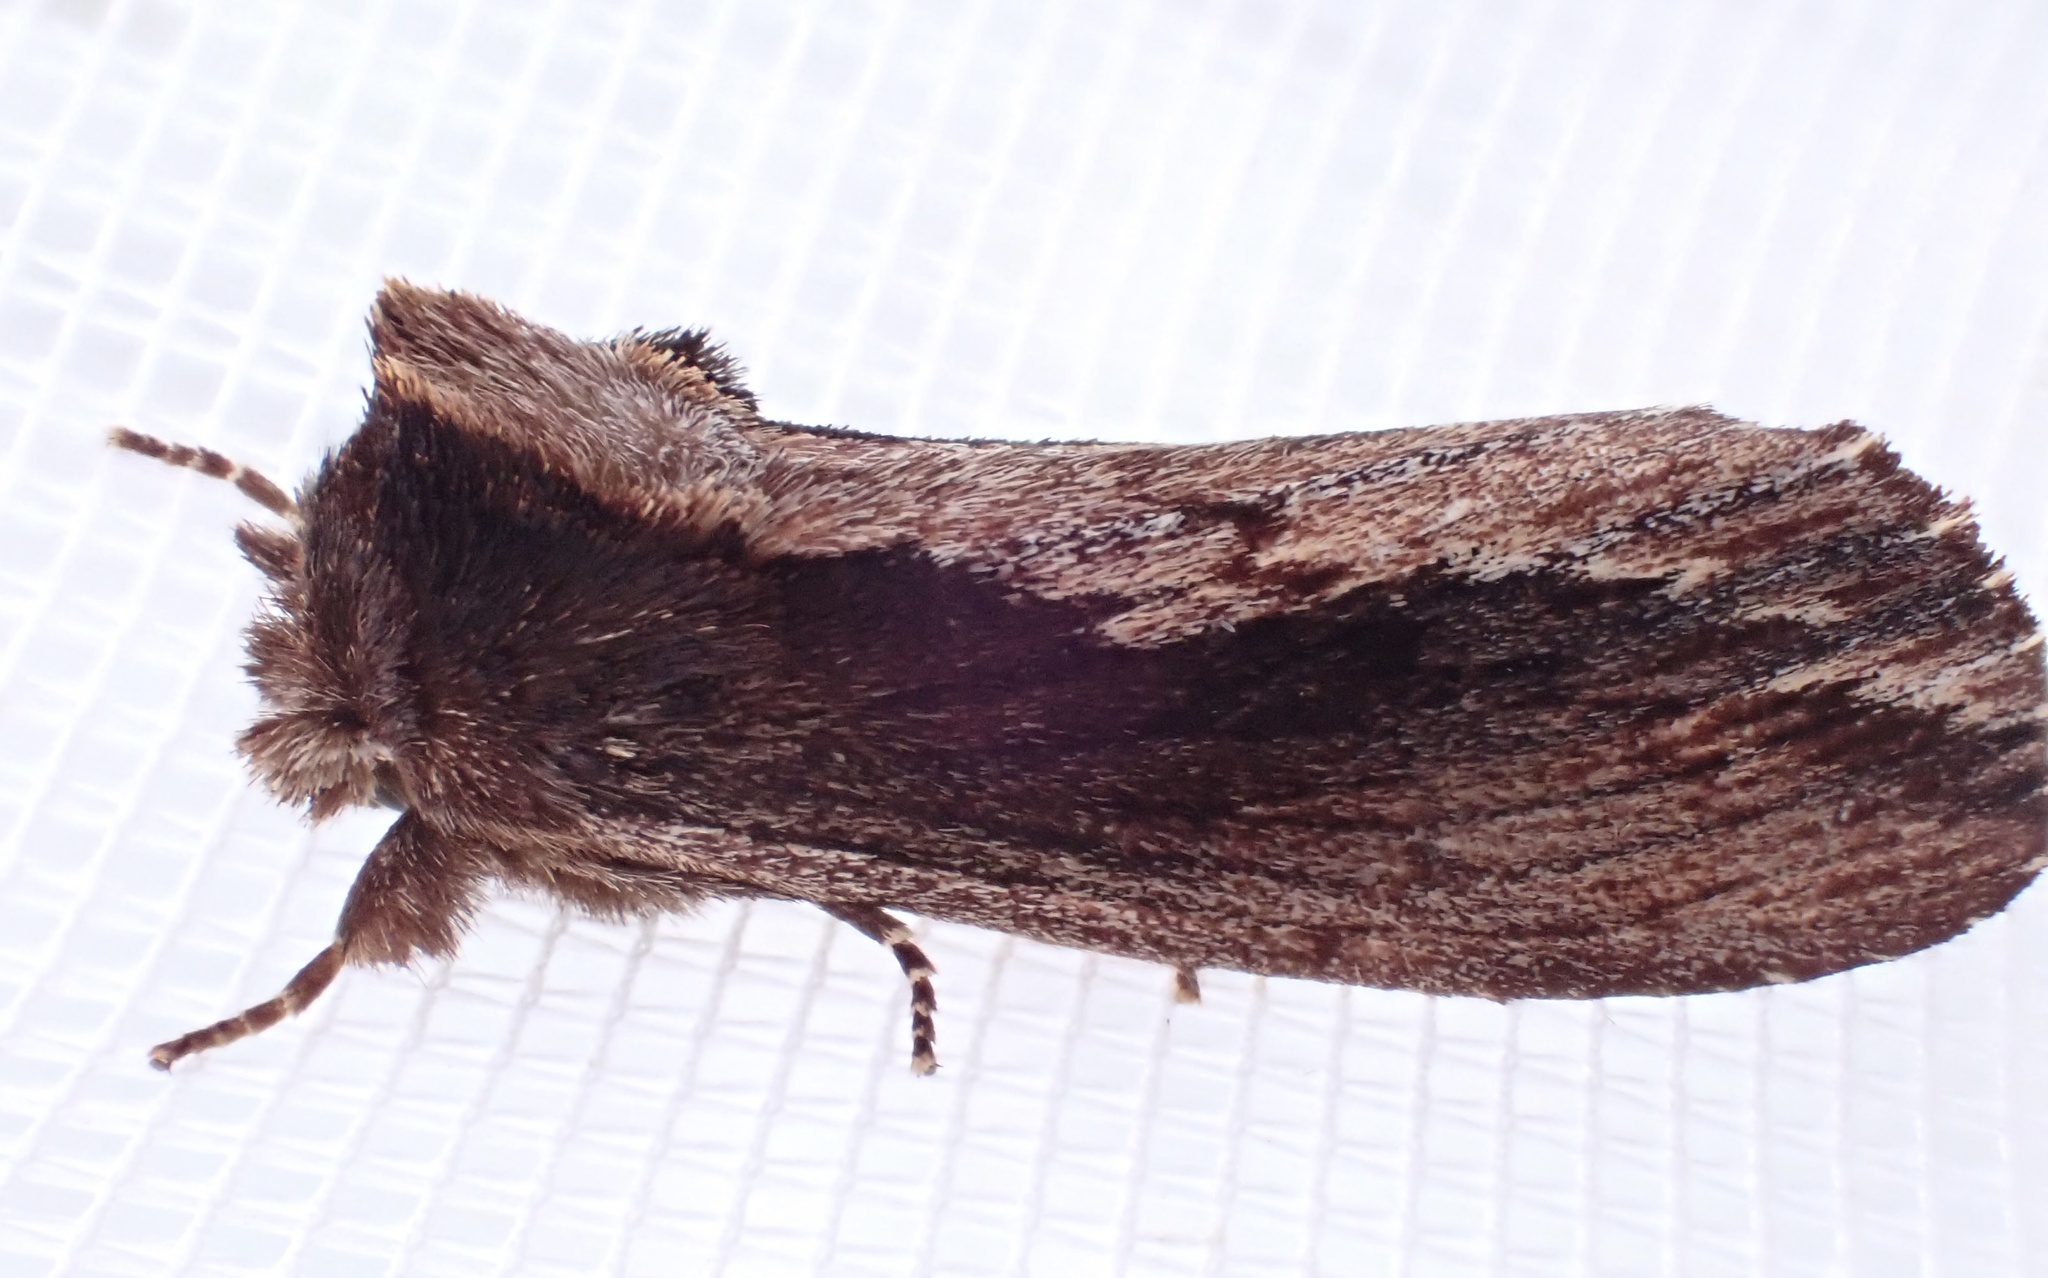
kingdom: Animalia
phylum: Arthropoda
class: Insecta
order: Lepidoptera
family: Notodontidae
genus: Hylaeora
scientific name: Hylaeora capucina
